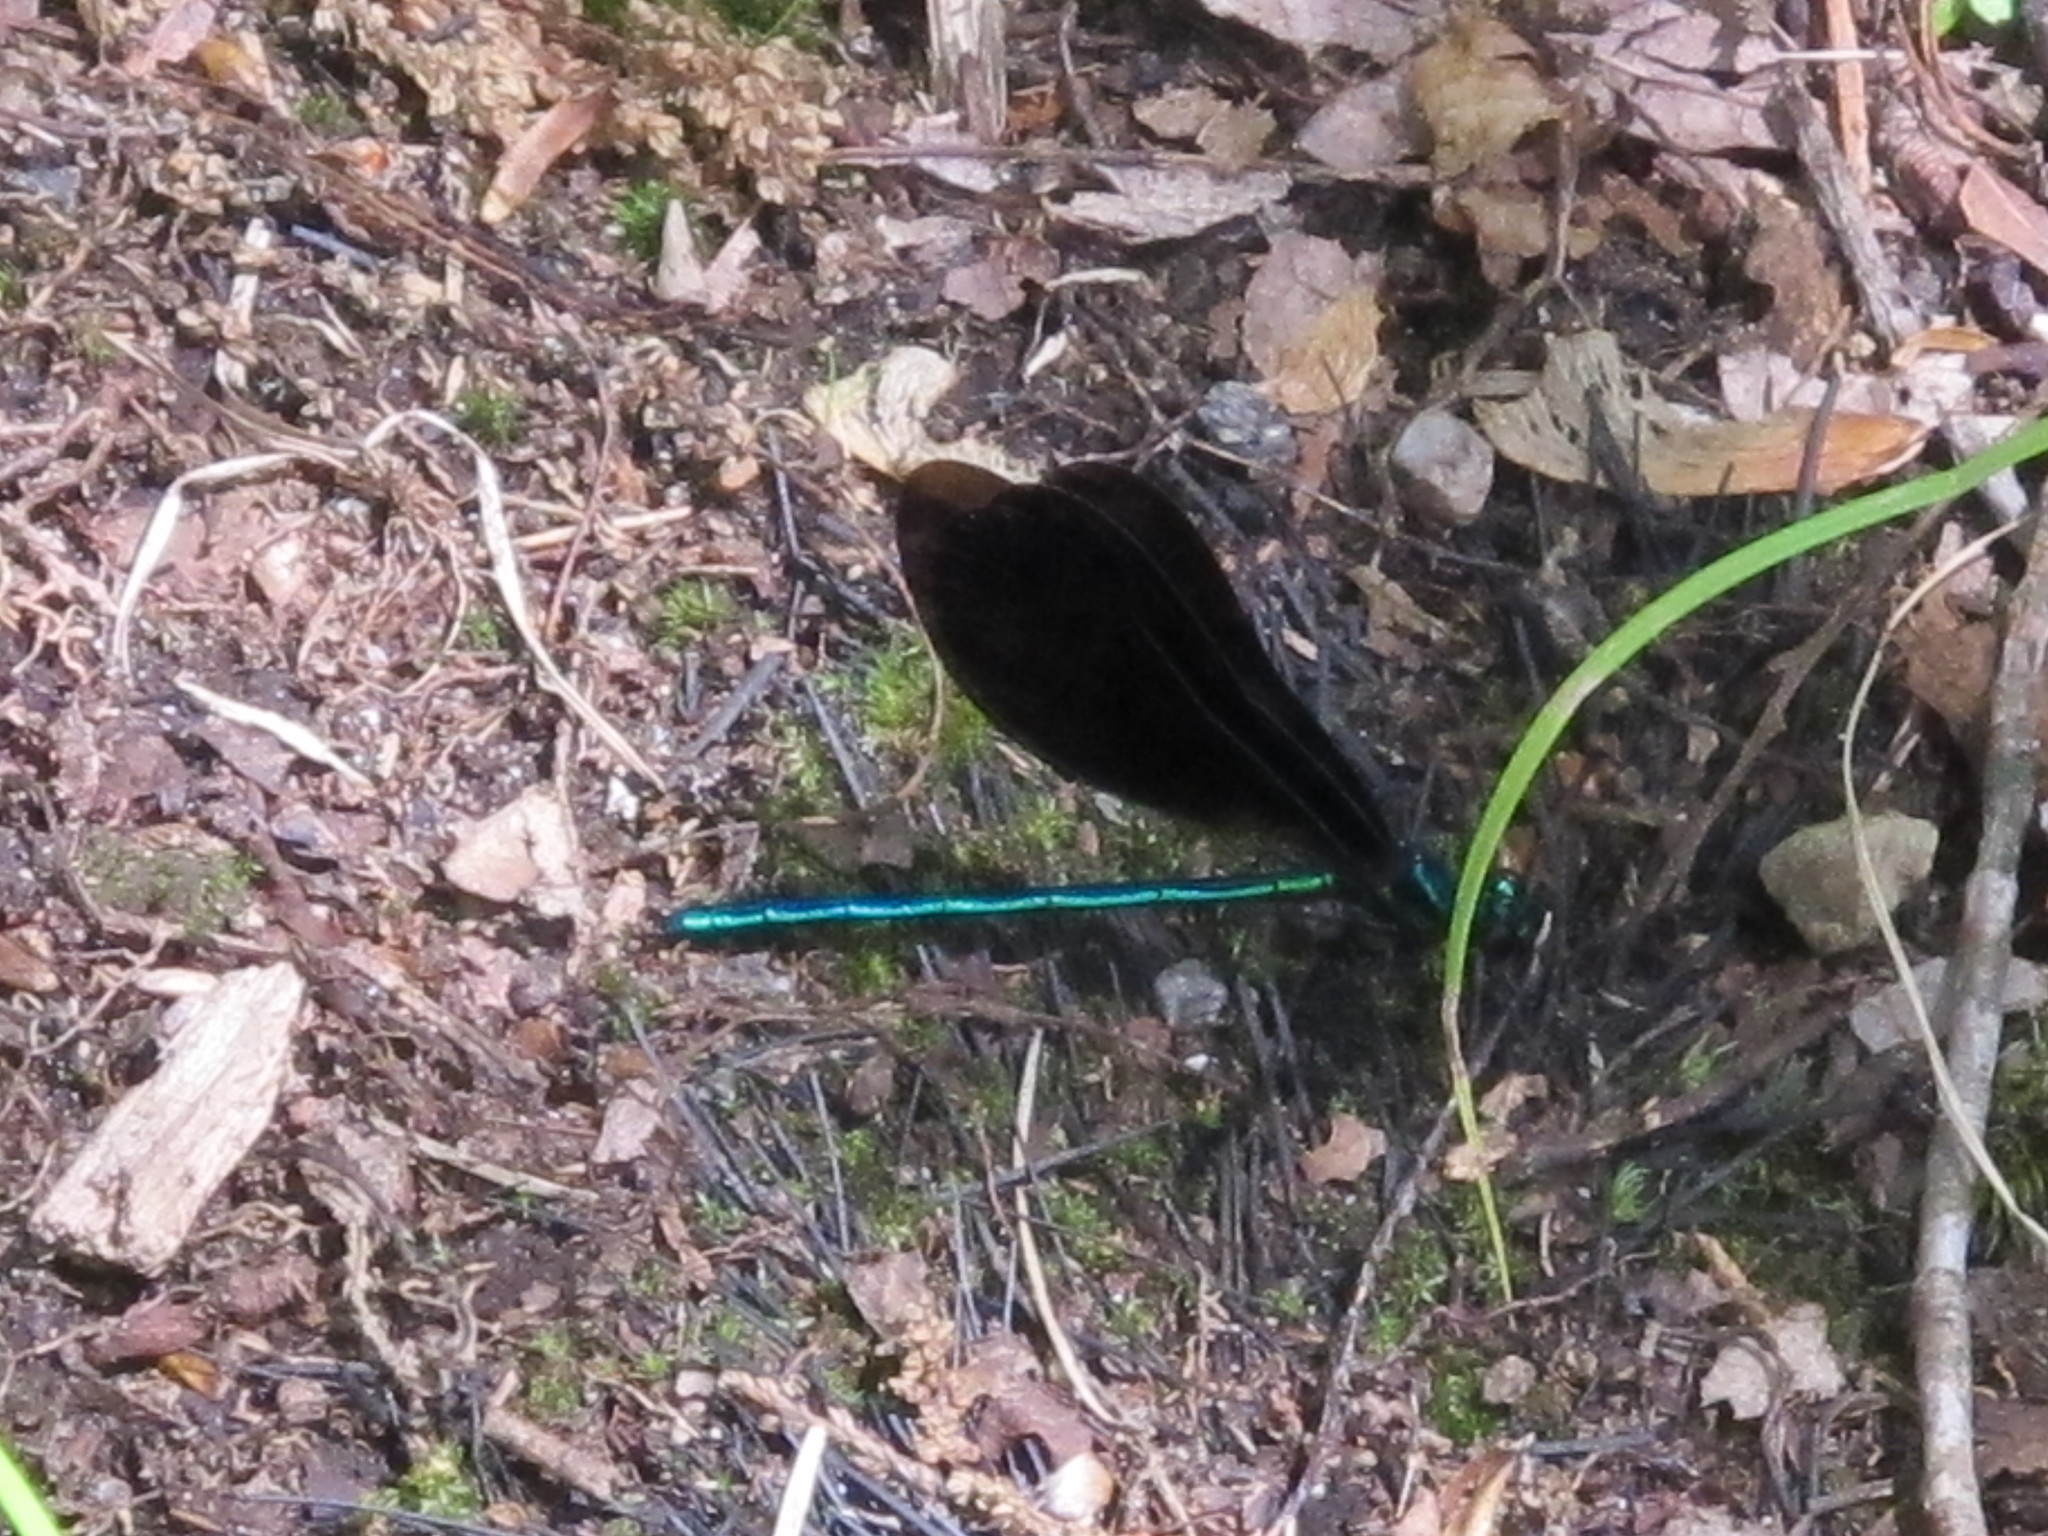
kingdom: Animalia
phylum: Arthropoda
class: Insecta
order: Odonata
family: Calopterygidae
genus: Calopteryx
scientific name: Calopteryx maculata
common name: Ebony jewelwing
